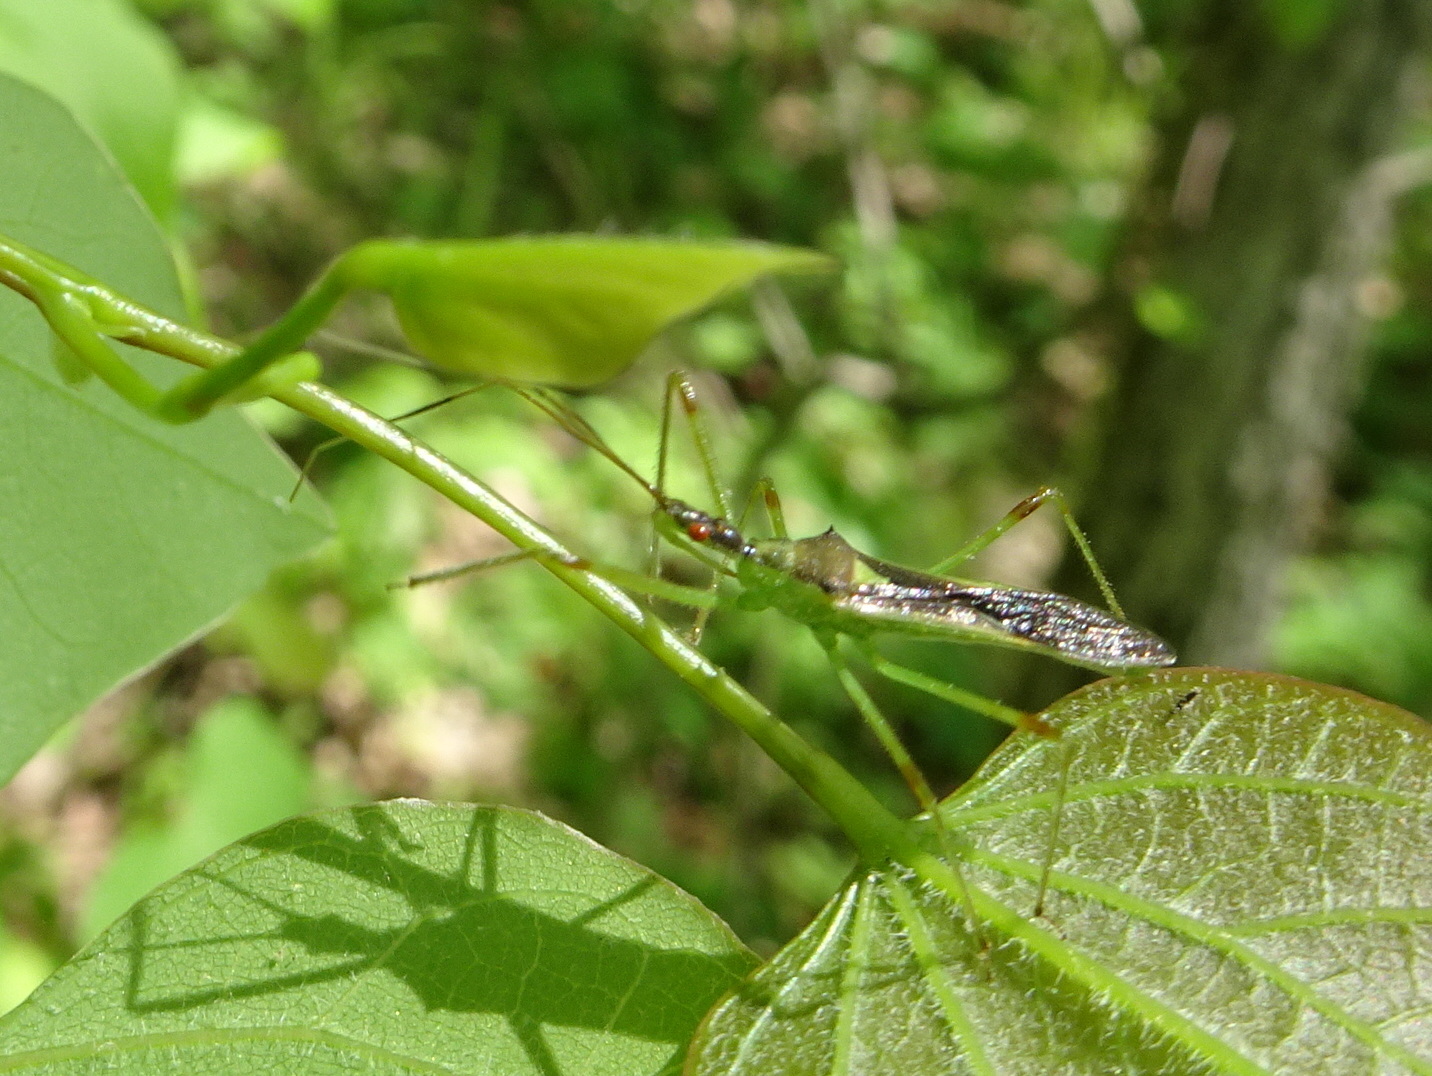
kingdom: Animalia
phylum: Arthropoda
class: Insecta
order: Hemiptera
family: Reduviidae
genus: Zelus
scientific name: Zelus luridus
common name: Pale green assassin bug
